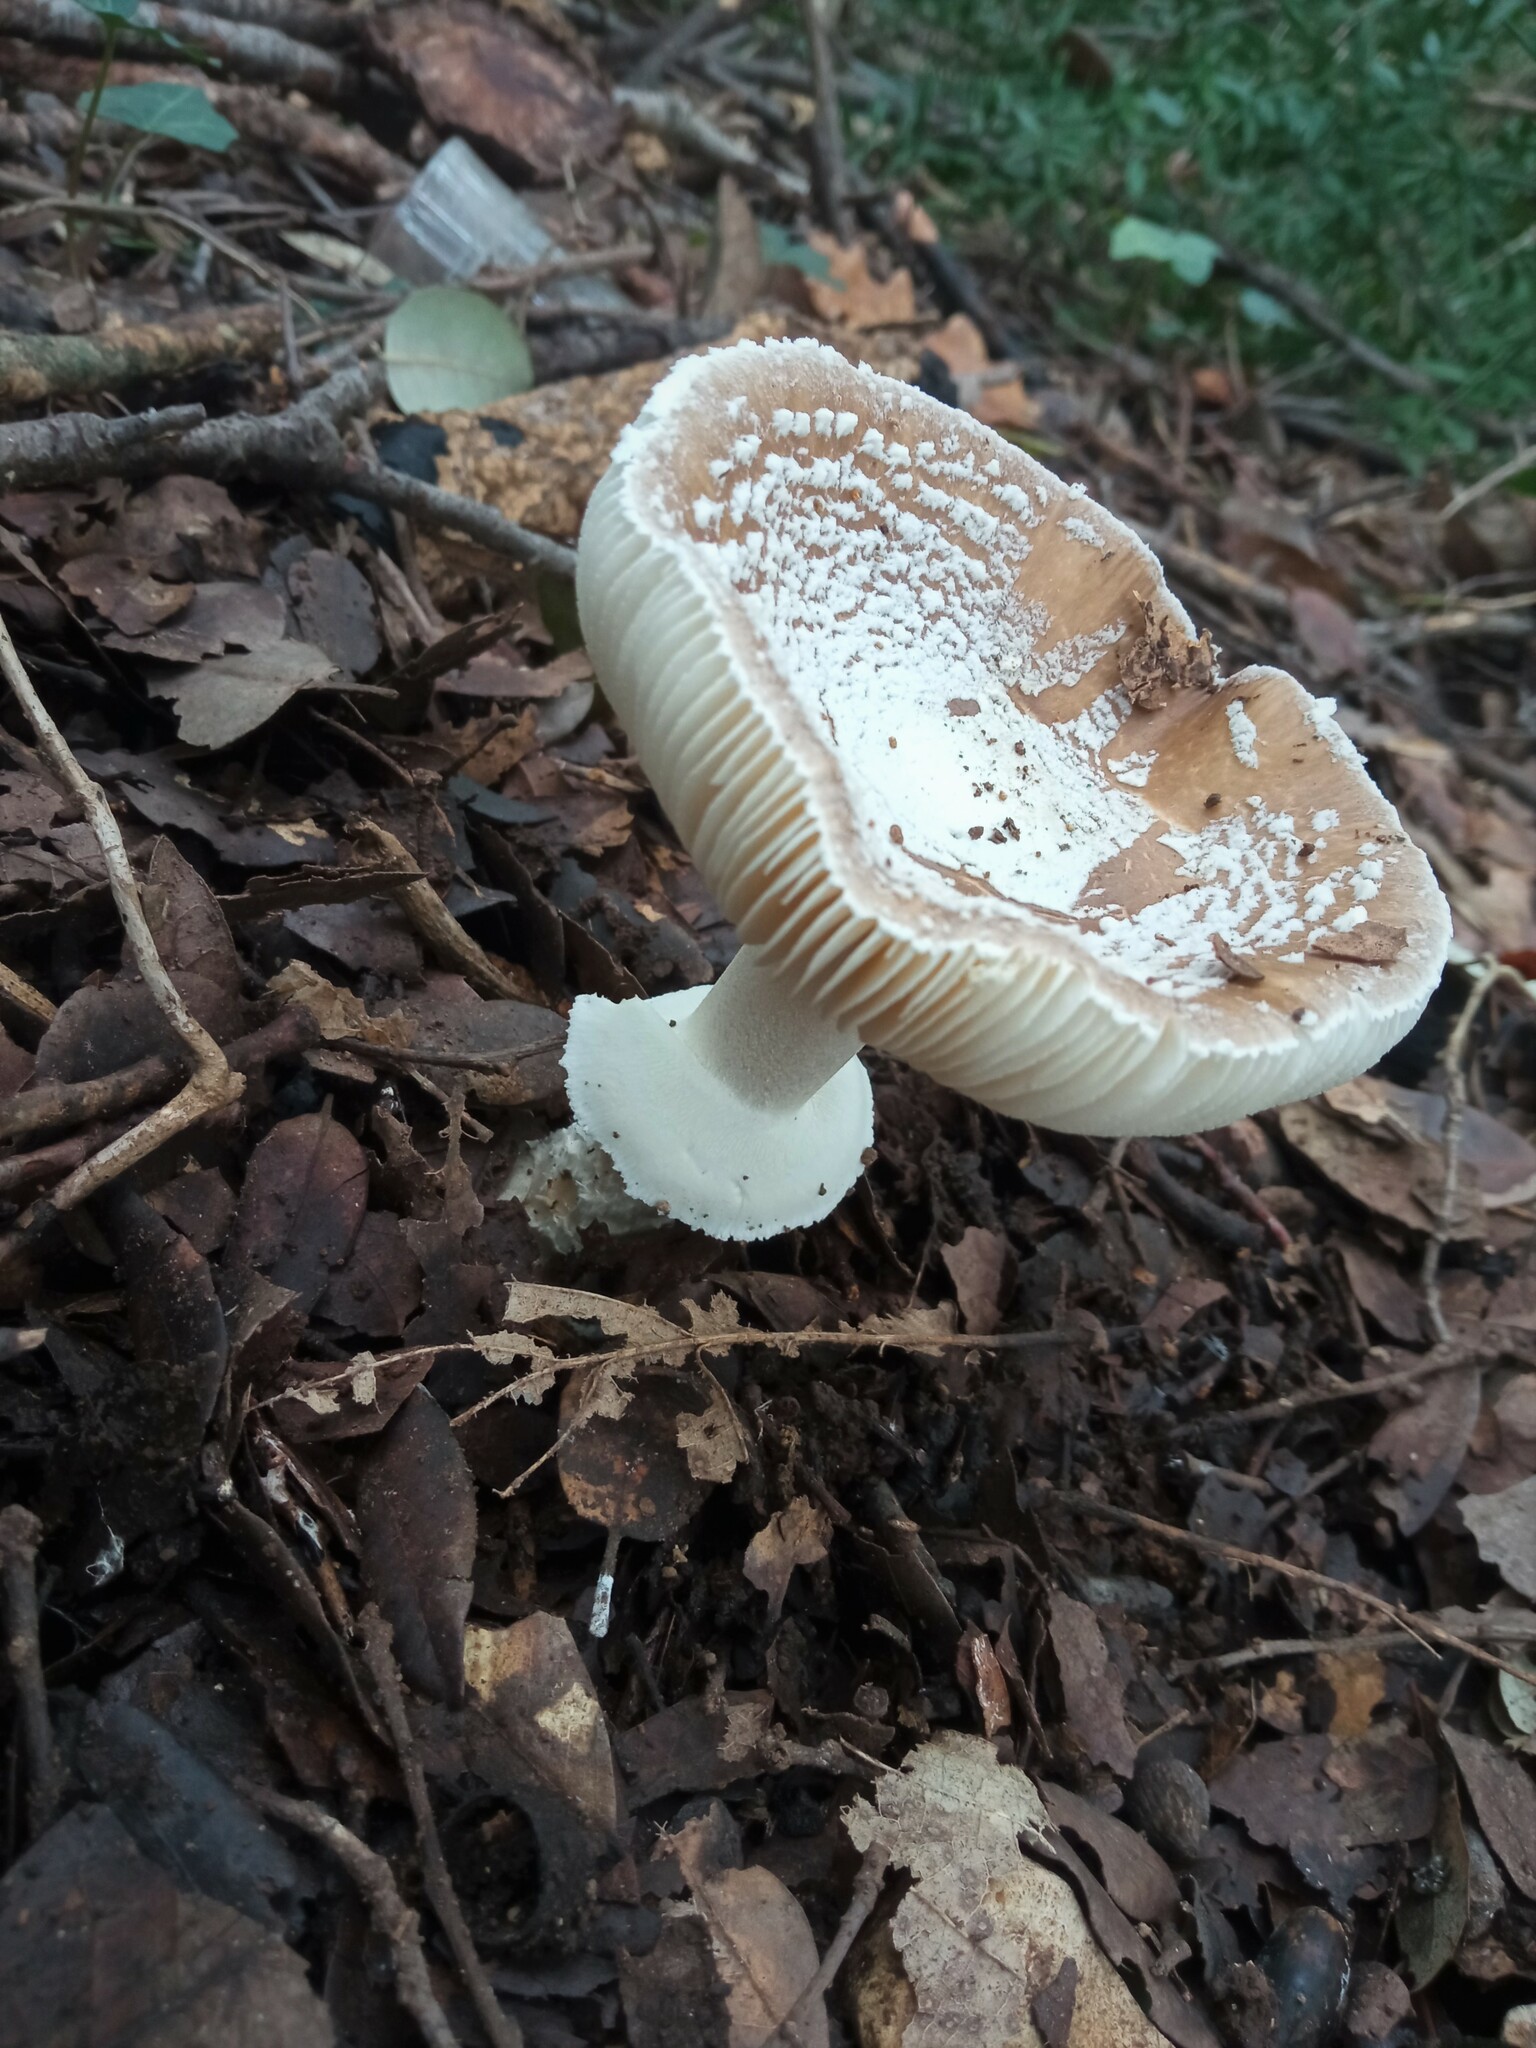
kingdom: Fungi
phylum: Basidiomycota
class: Agaricomycetes
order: Agaricales
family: Amanitaceae
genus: Amanita
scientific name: Amanita pantherina
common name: Panthercap
